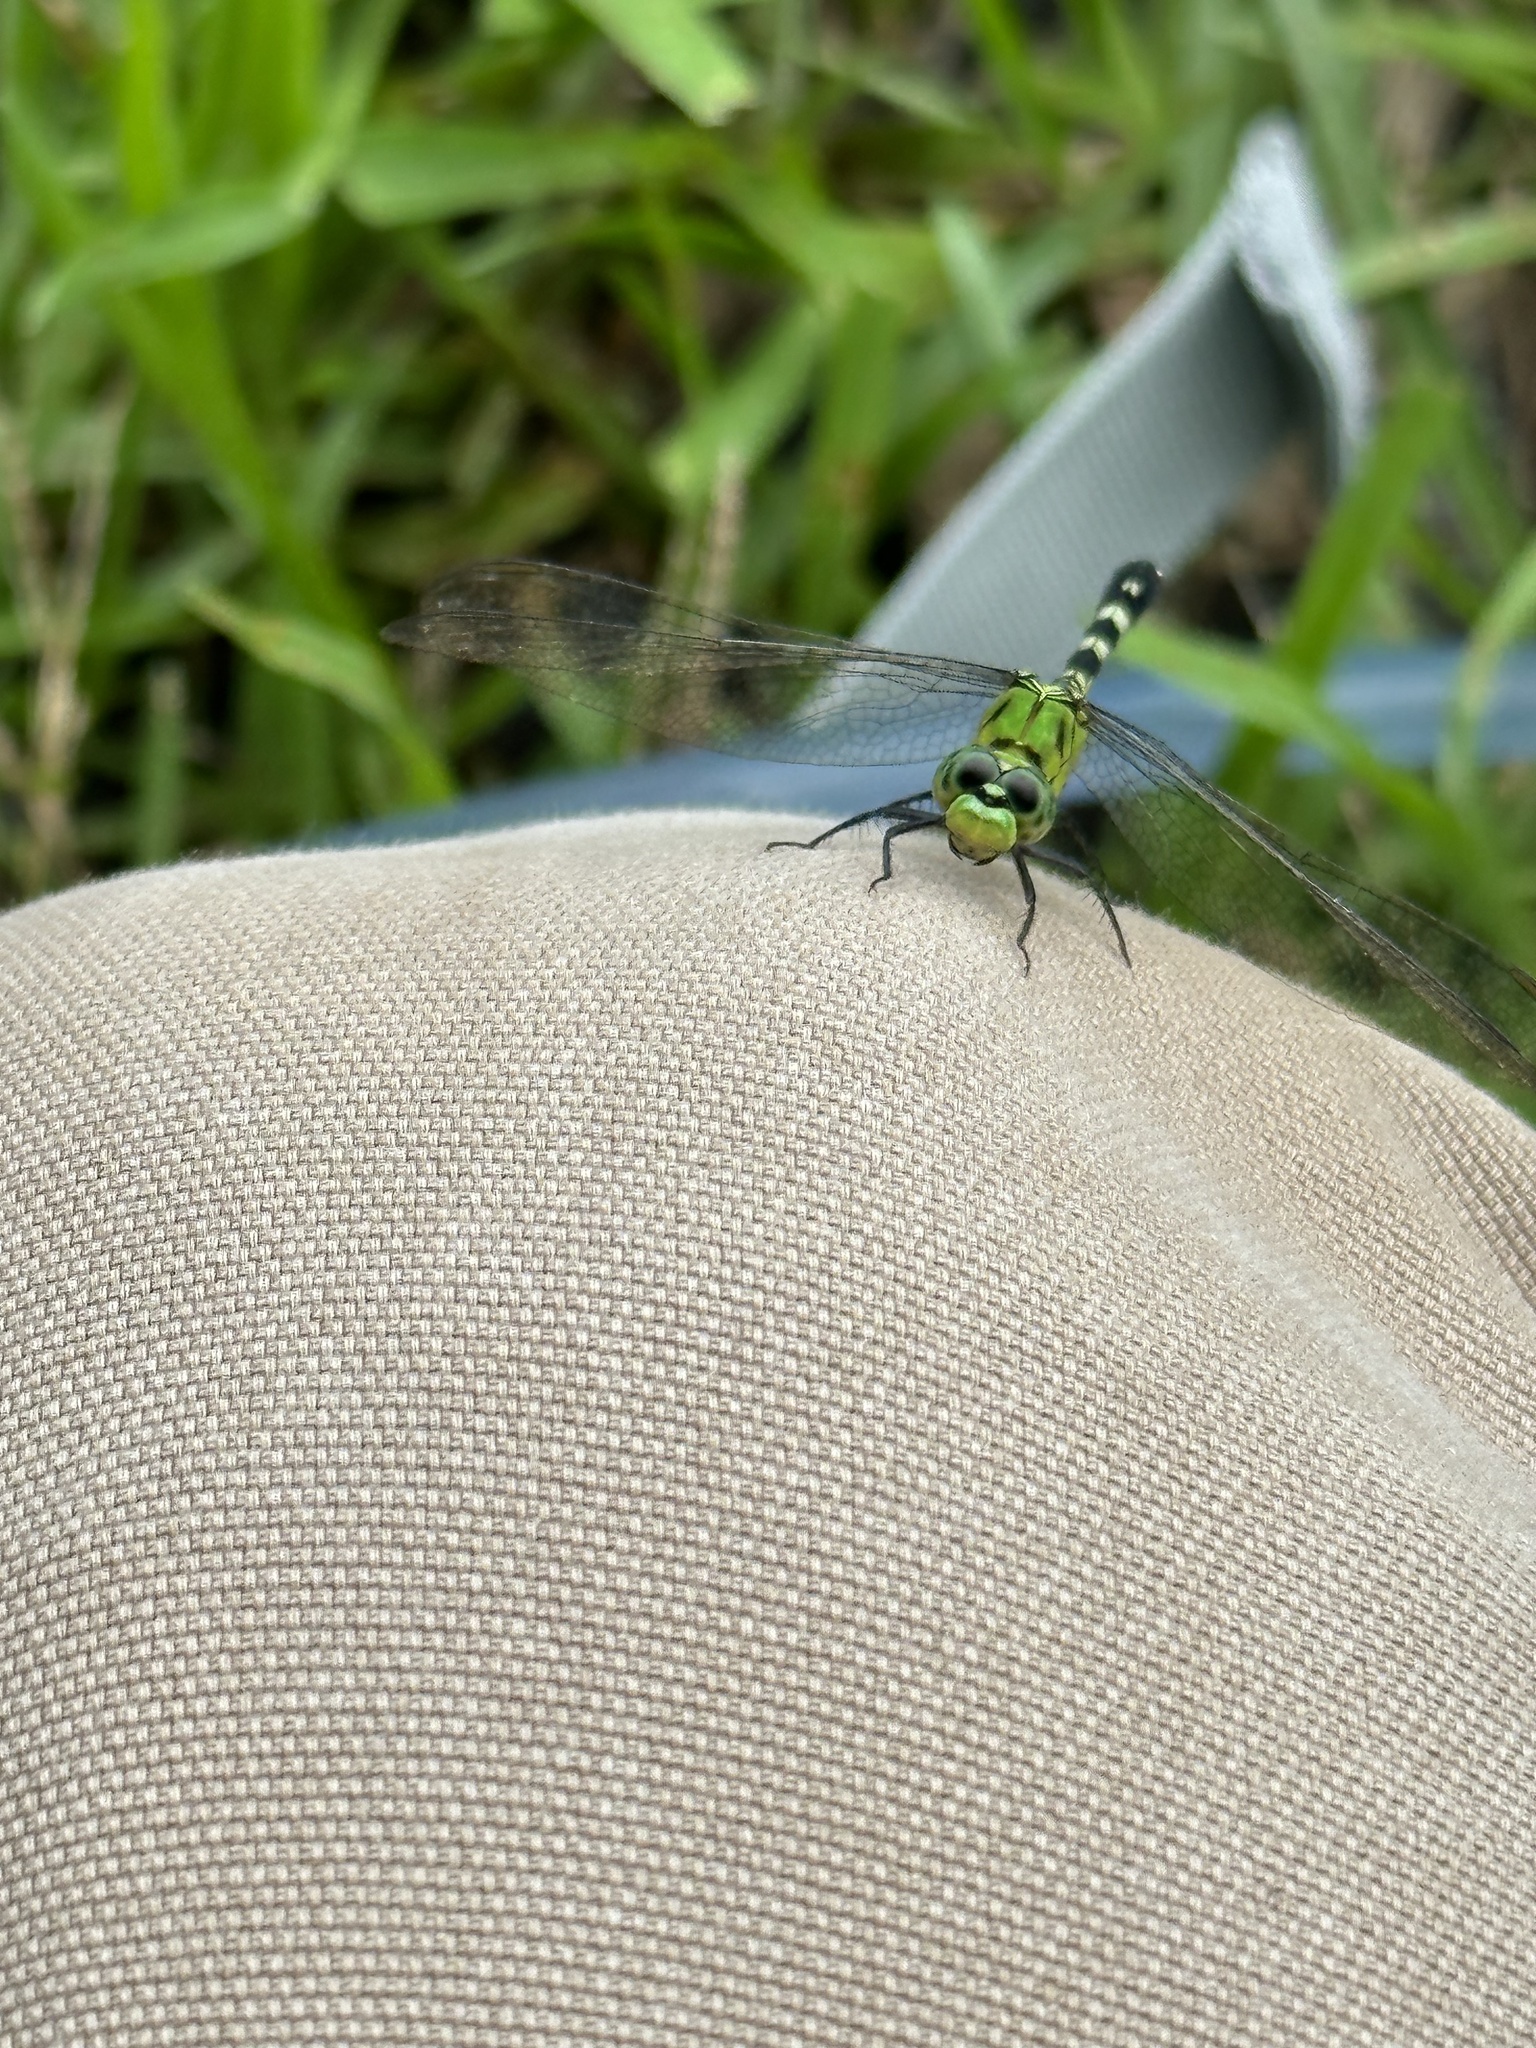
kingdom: Animalia
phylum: Arthropoda
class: Insecta
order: Odonata
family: Libellulidae
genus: Erythemis
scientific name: Erythemis simplicicollis
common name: Eastern pondhawk
